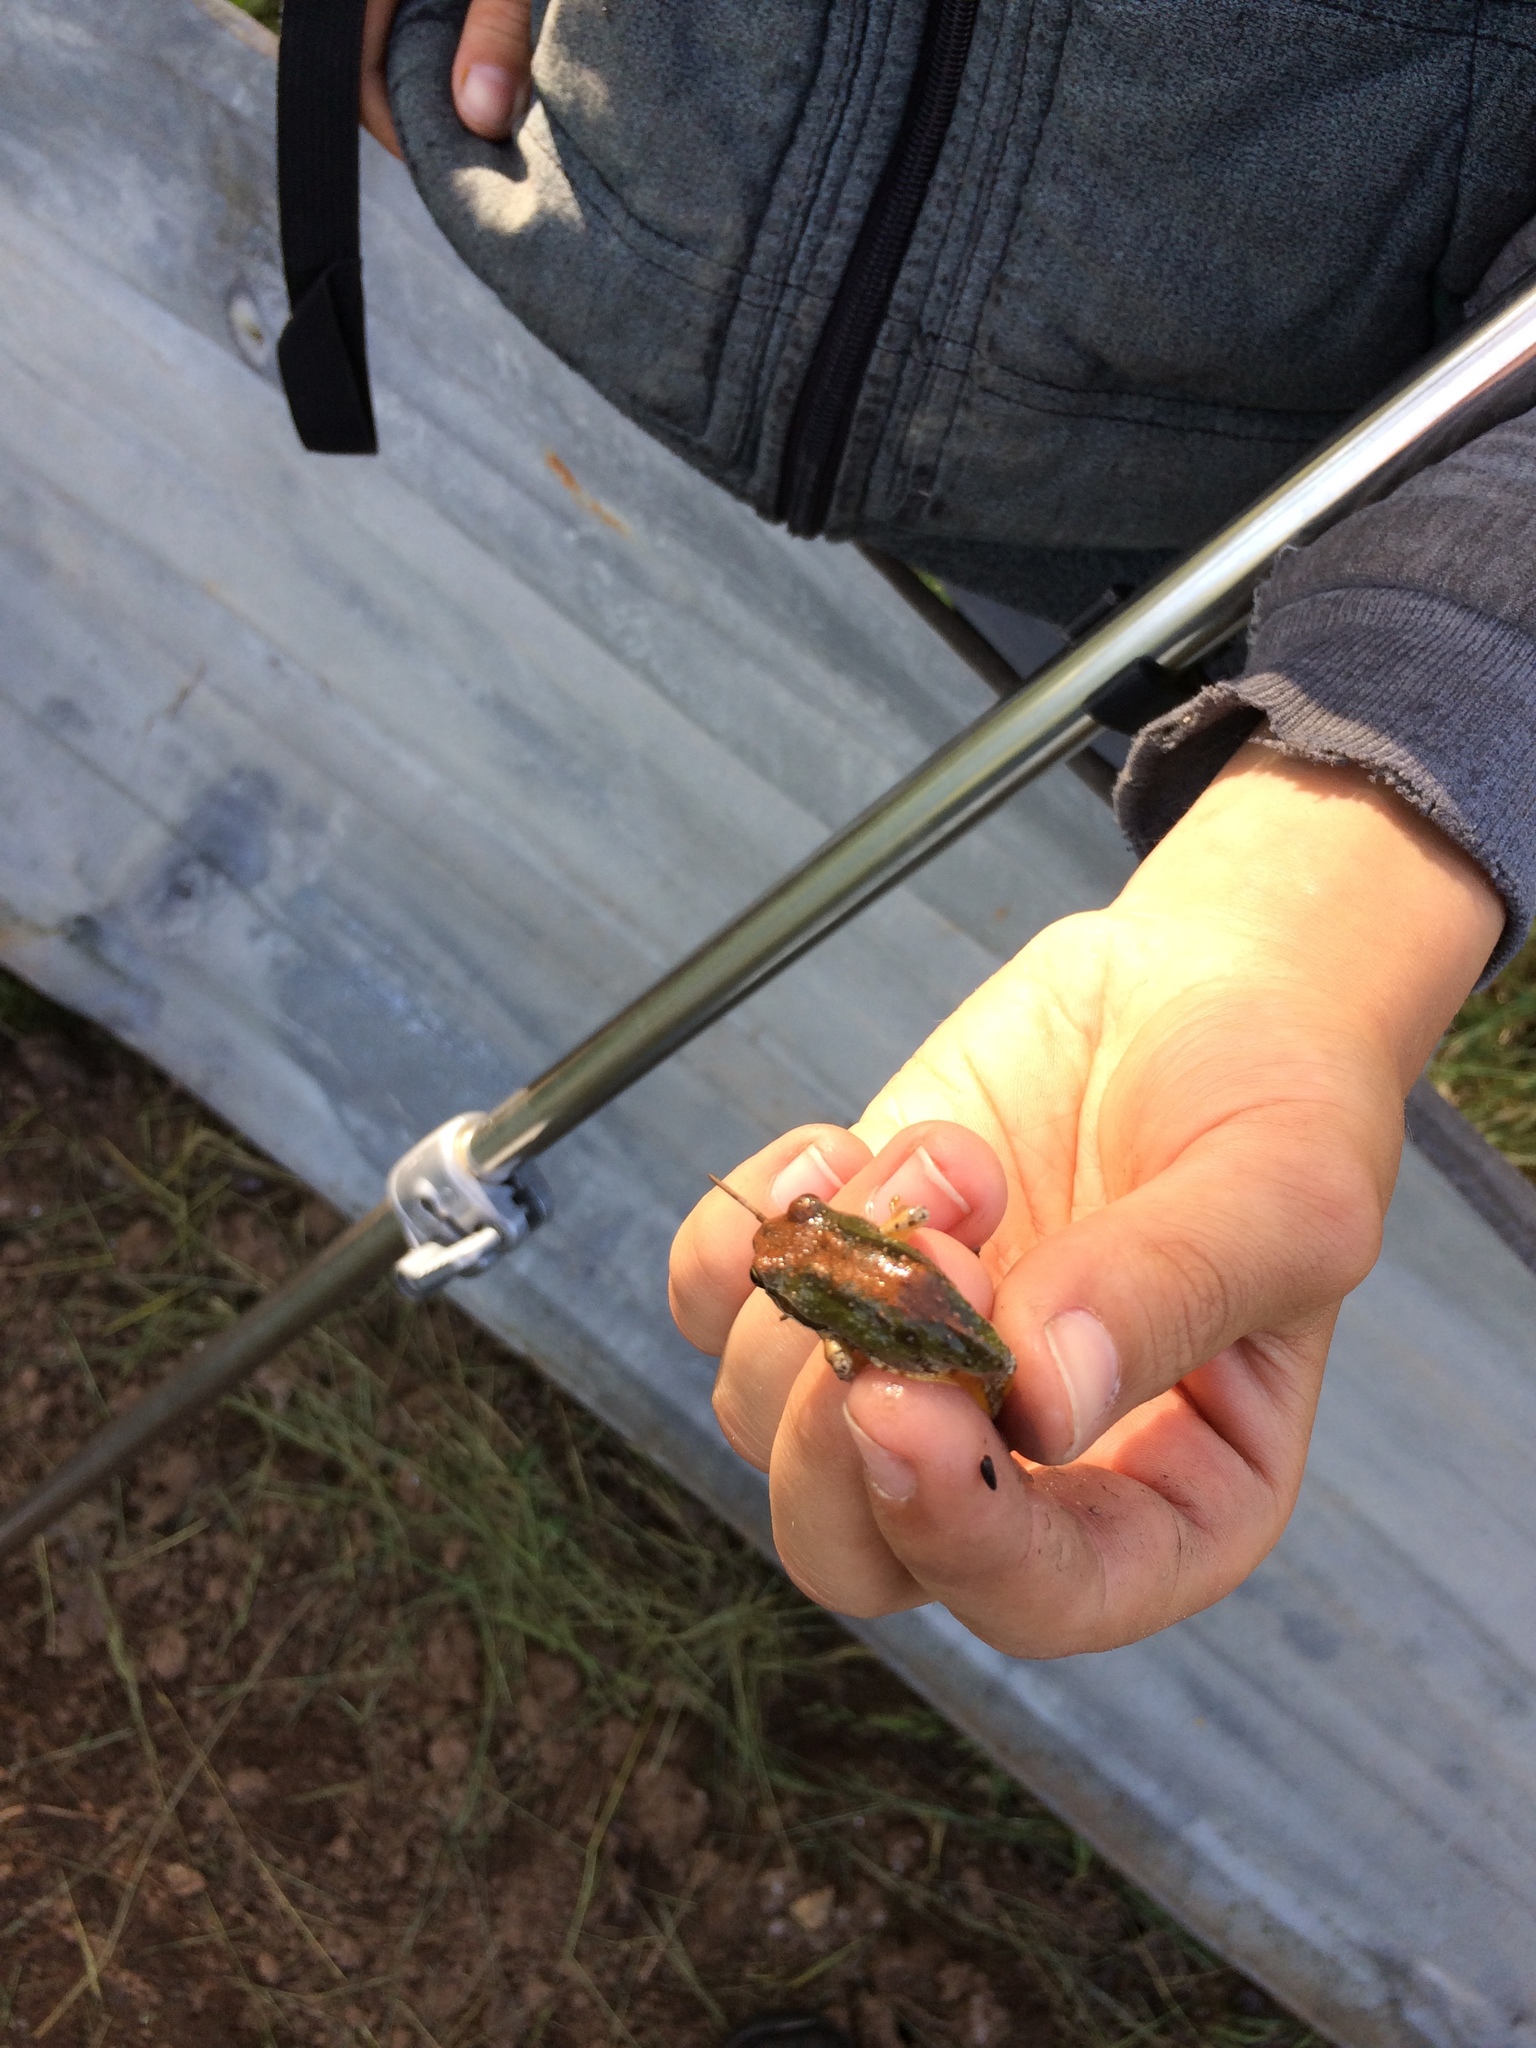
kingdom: Animalia
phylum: Chordata
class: Amphibia
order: Anura
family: Hylidae
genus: Pseudacris
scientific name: Pseudacris regilla
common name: Pacific chorus frog
